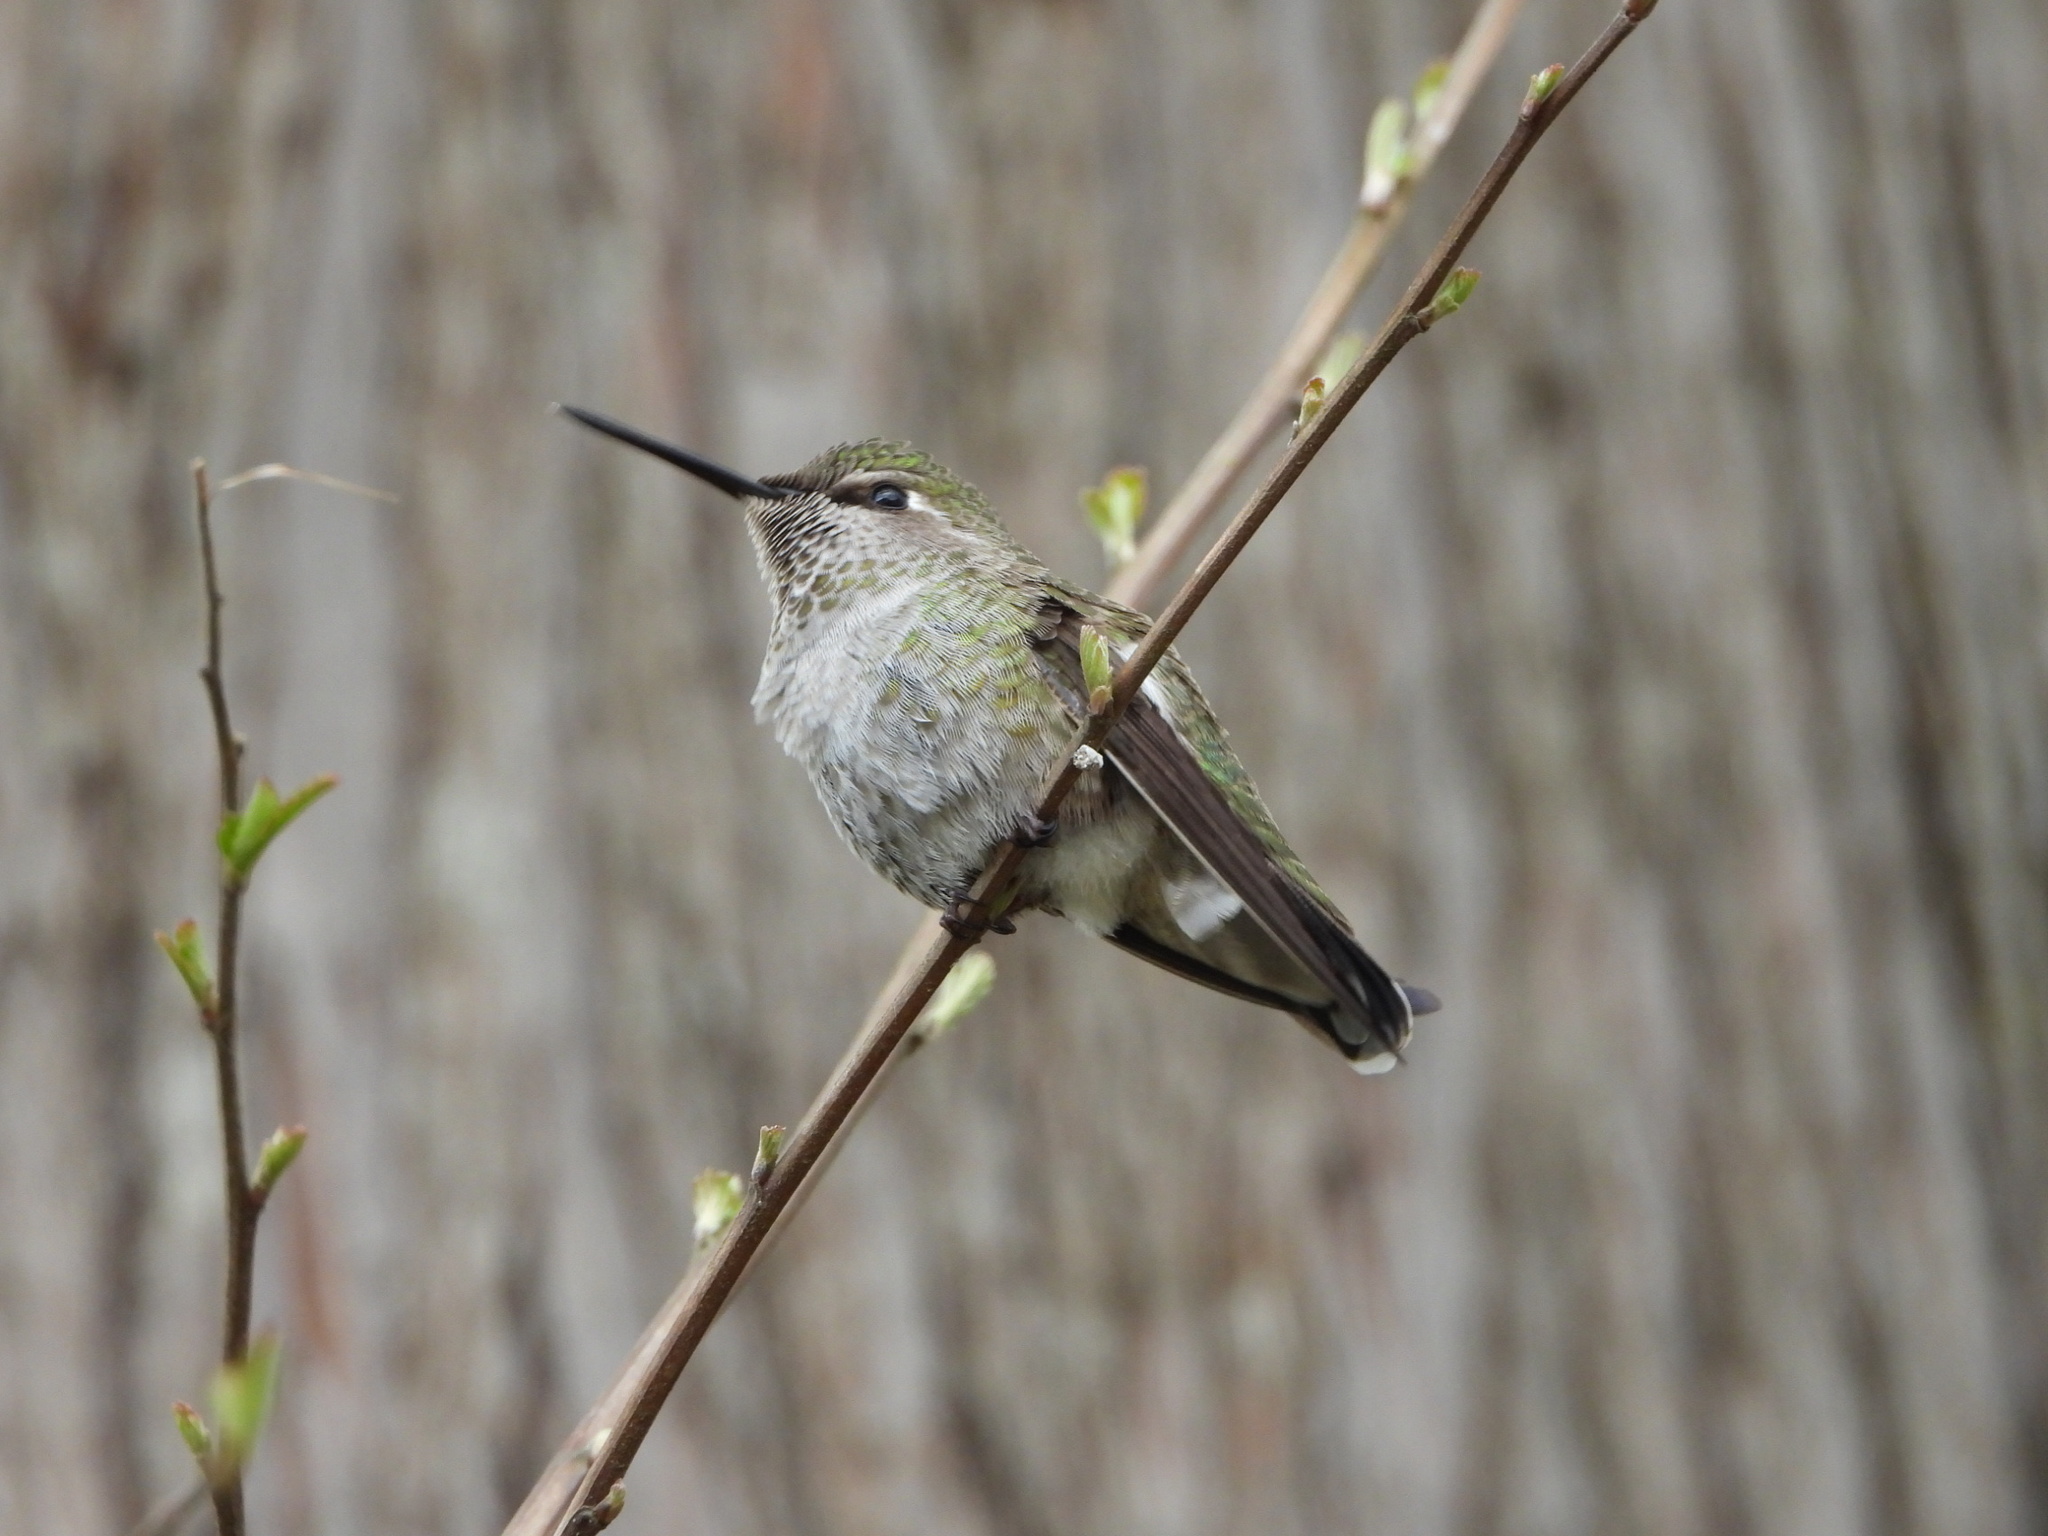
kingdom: Animalia
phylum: Chordata
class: Aves
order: Apodiformes
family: Trochilidae
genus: Calypte
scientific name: Calypte anna
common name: Anna's hummingbird
